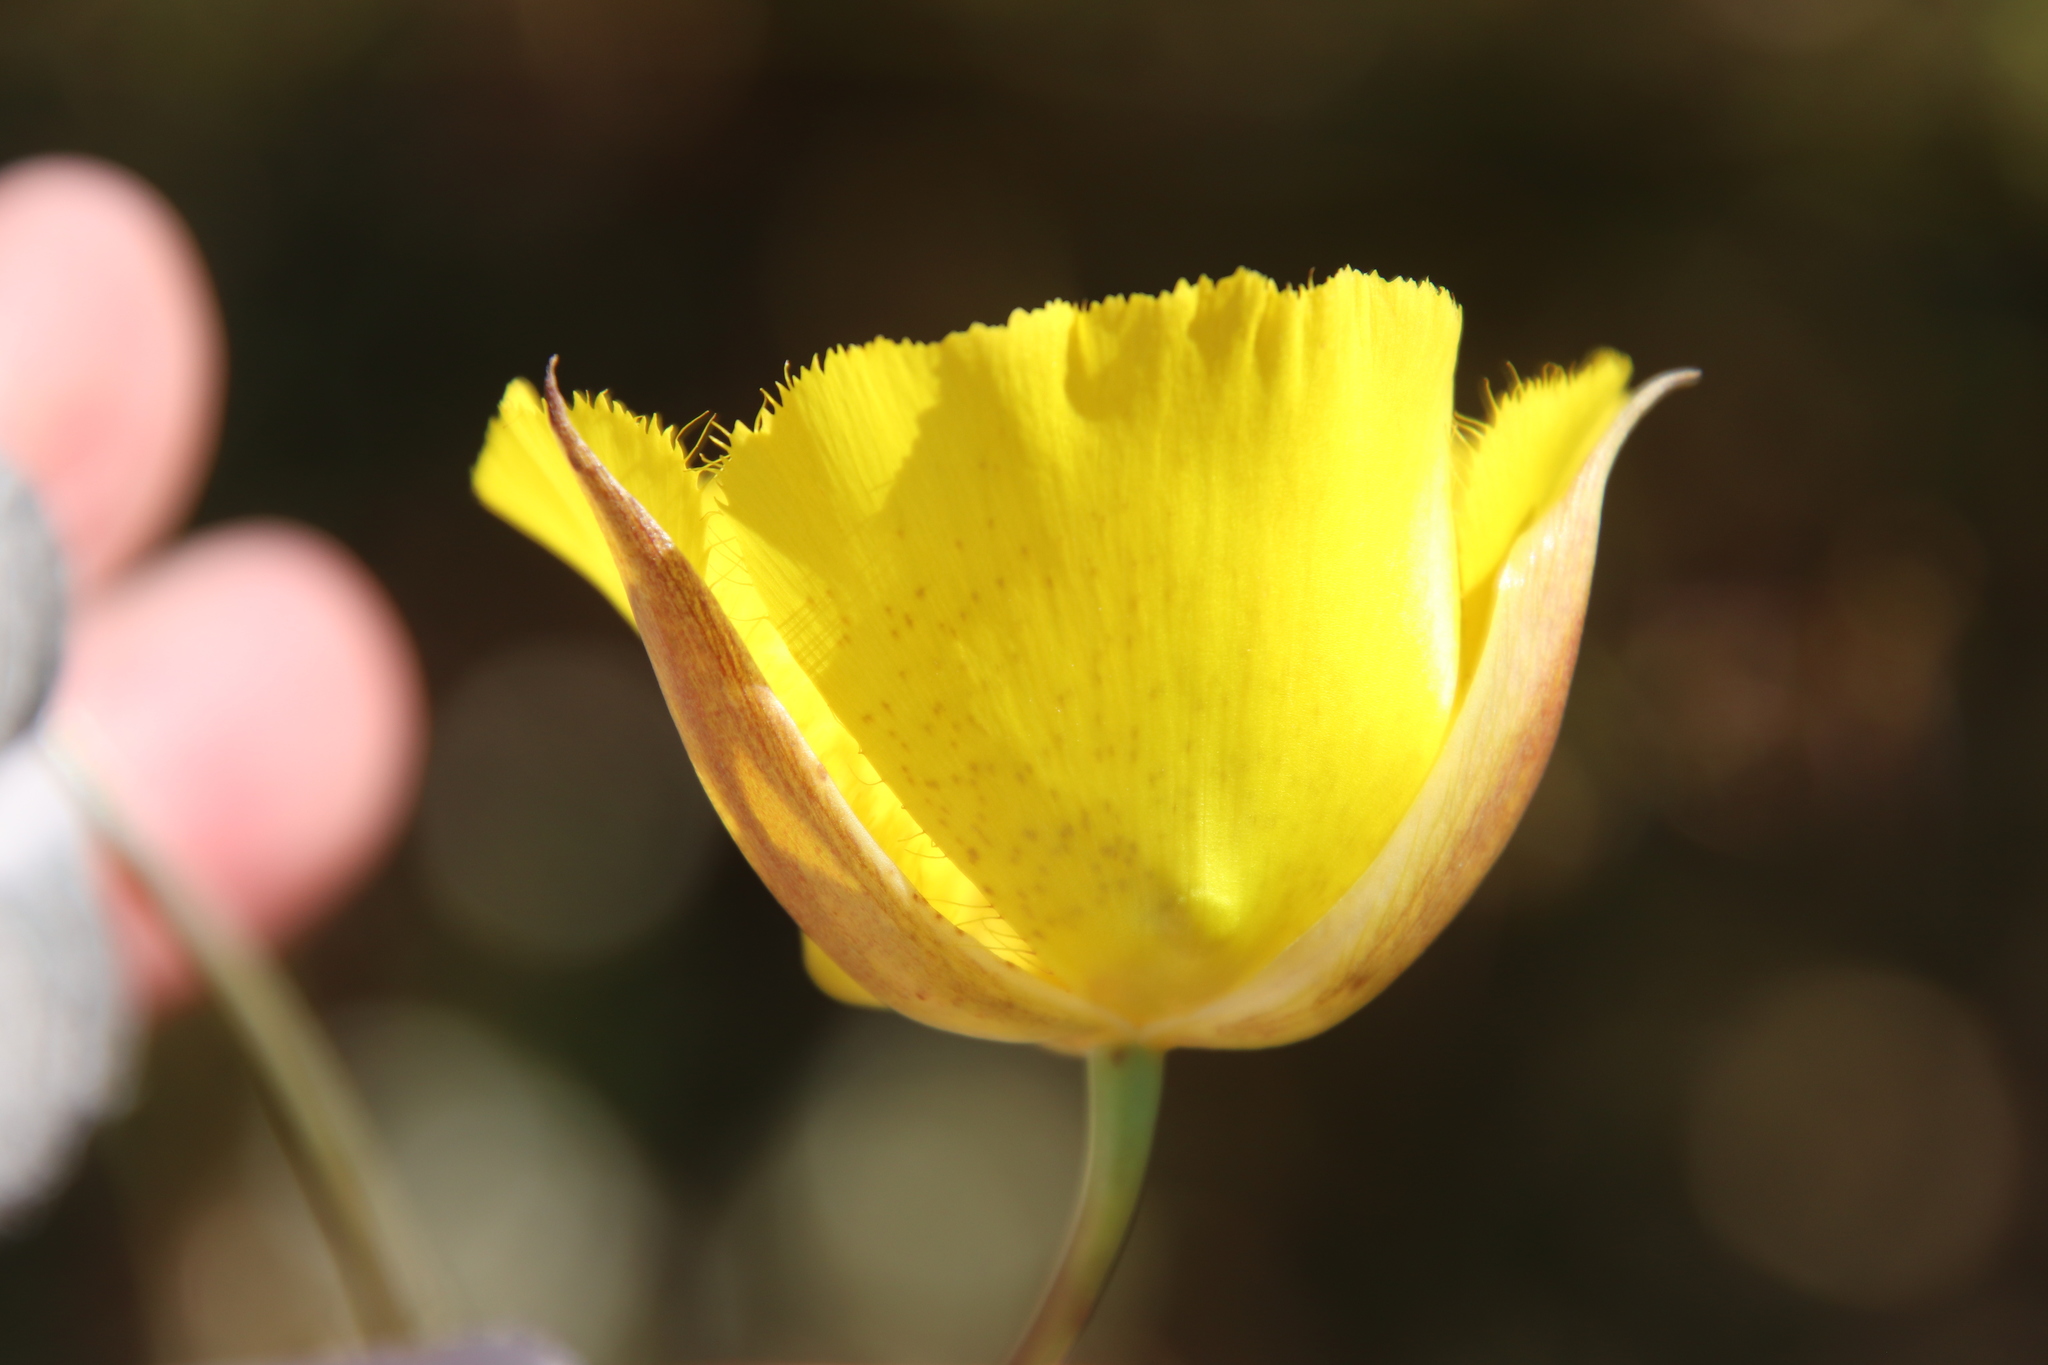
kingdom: Plantae
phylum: Tracheophyta
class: Liliopsida
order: Liliales
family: Liliaceae
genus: Calochortus
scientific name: Calochortus weedii
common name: Weed's mariposa-lily
